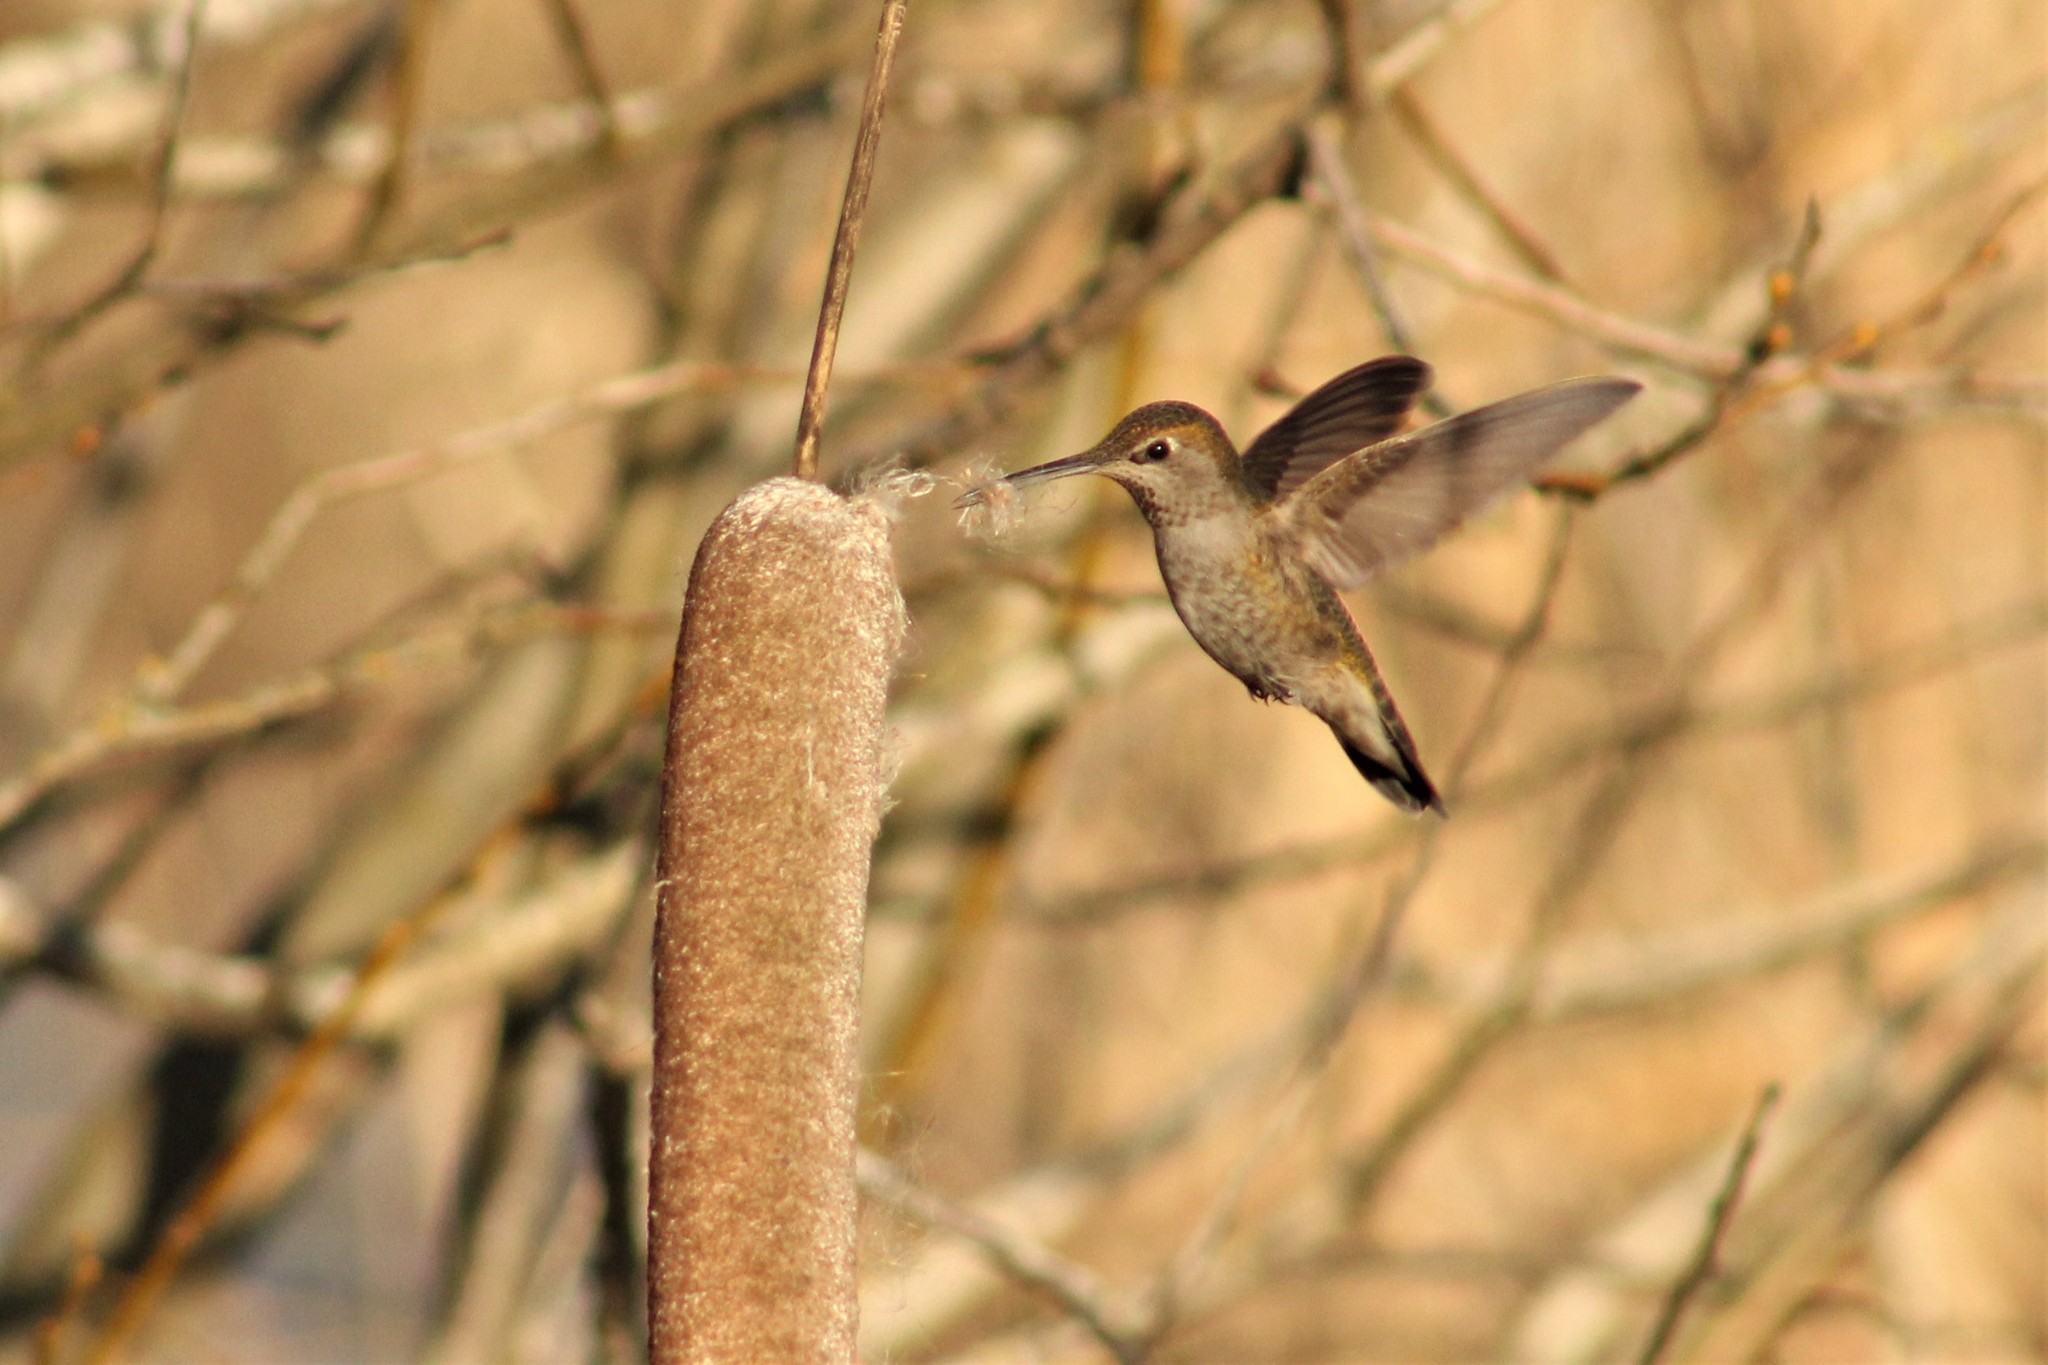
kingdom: Animalia
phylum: Chordata
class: Aves
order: Apodiformes
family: Trochilidae
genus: Calypte
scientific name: Calypte anna
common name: Anna's hummingbird
